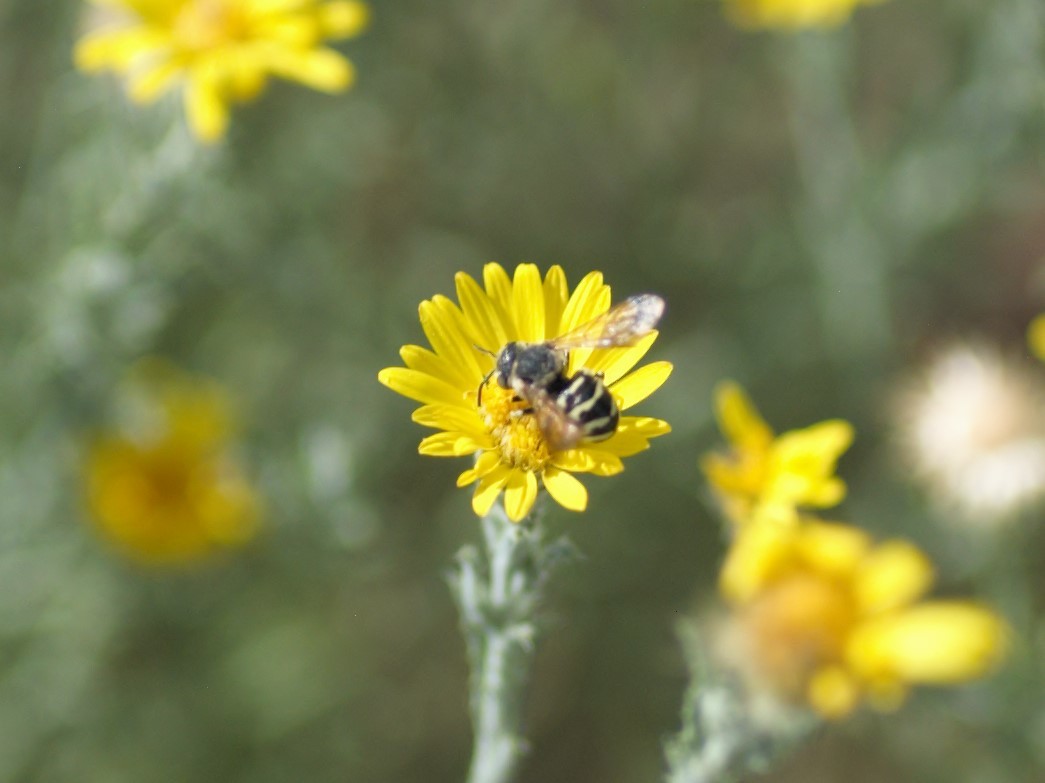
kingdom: Animalia
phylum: Arthropoda
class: Insecta
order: Hymenoptera
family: Megachilidae
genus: Dianthidium
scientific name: Dianthidium
